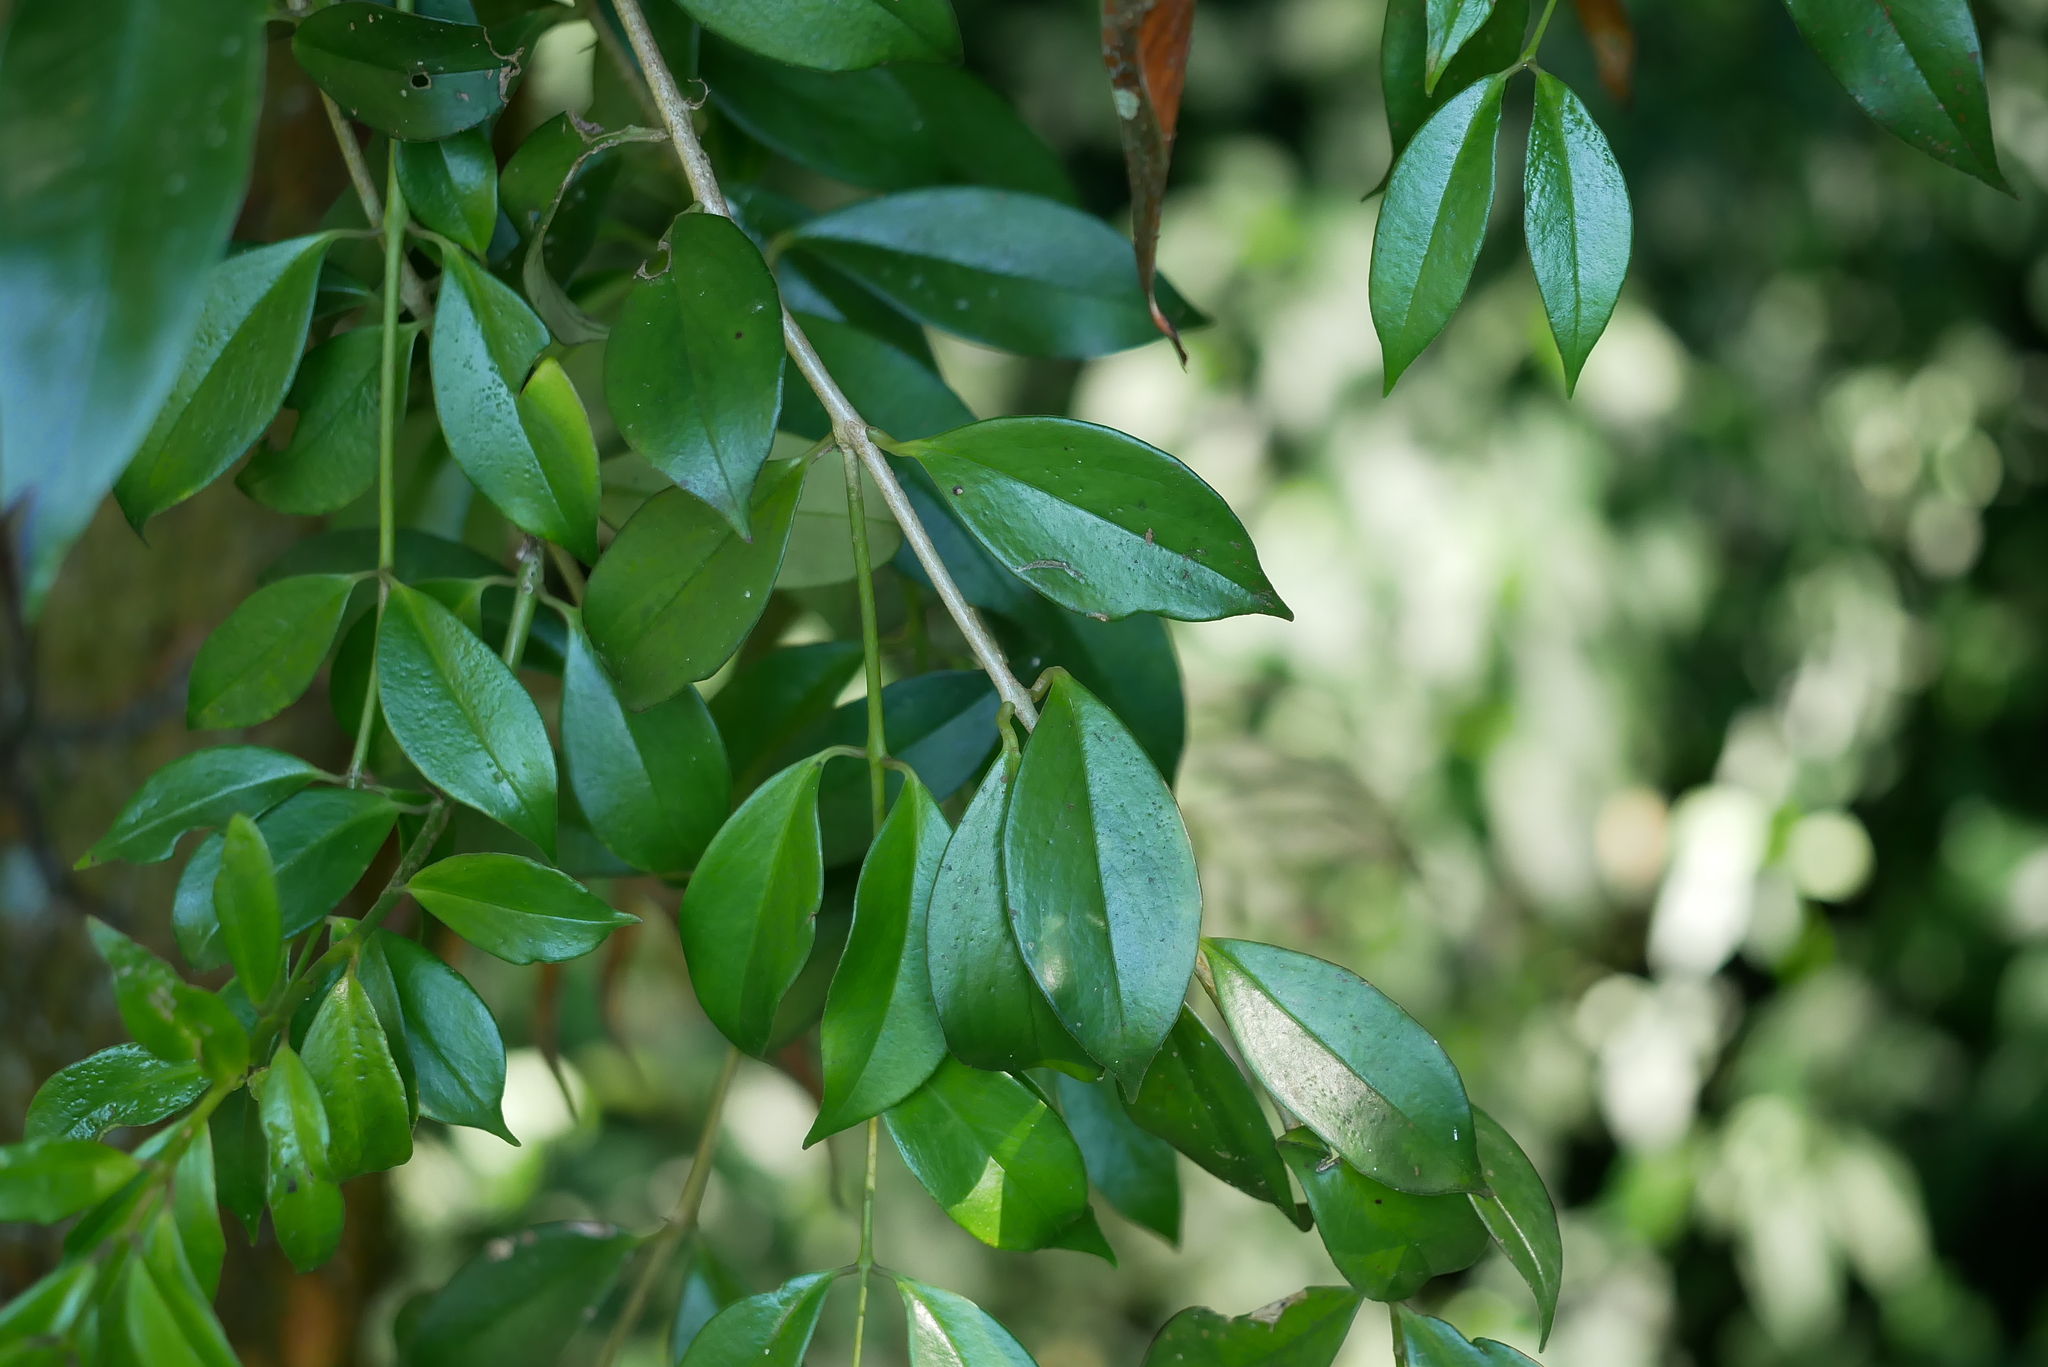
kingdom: Plantae
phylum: Tracheophyta
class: Magnoliopsida
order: Lamiales
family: Gesneriaceae
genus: Aeschynanthus
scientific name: Aeschynanthus acuminatus
